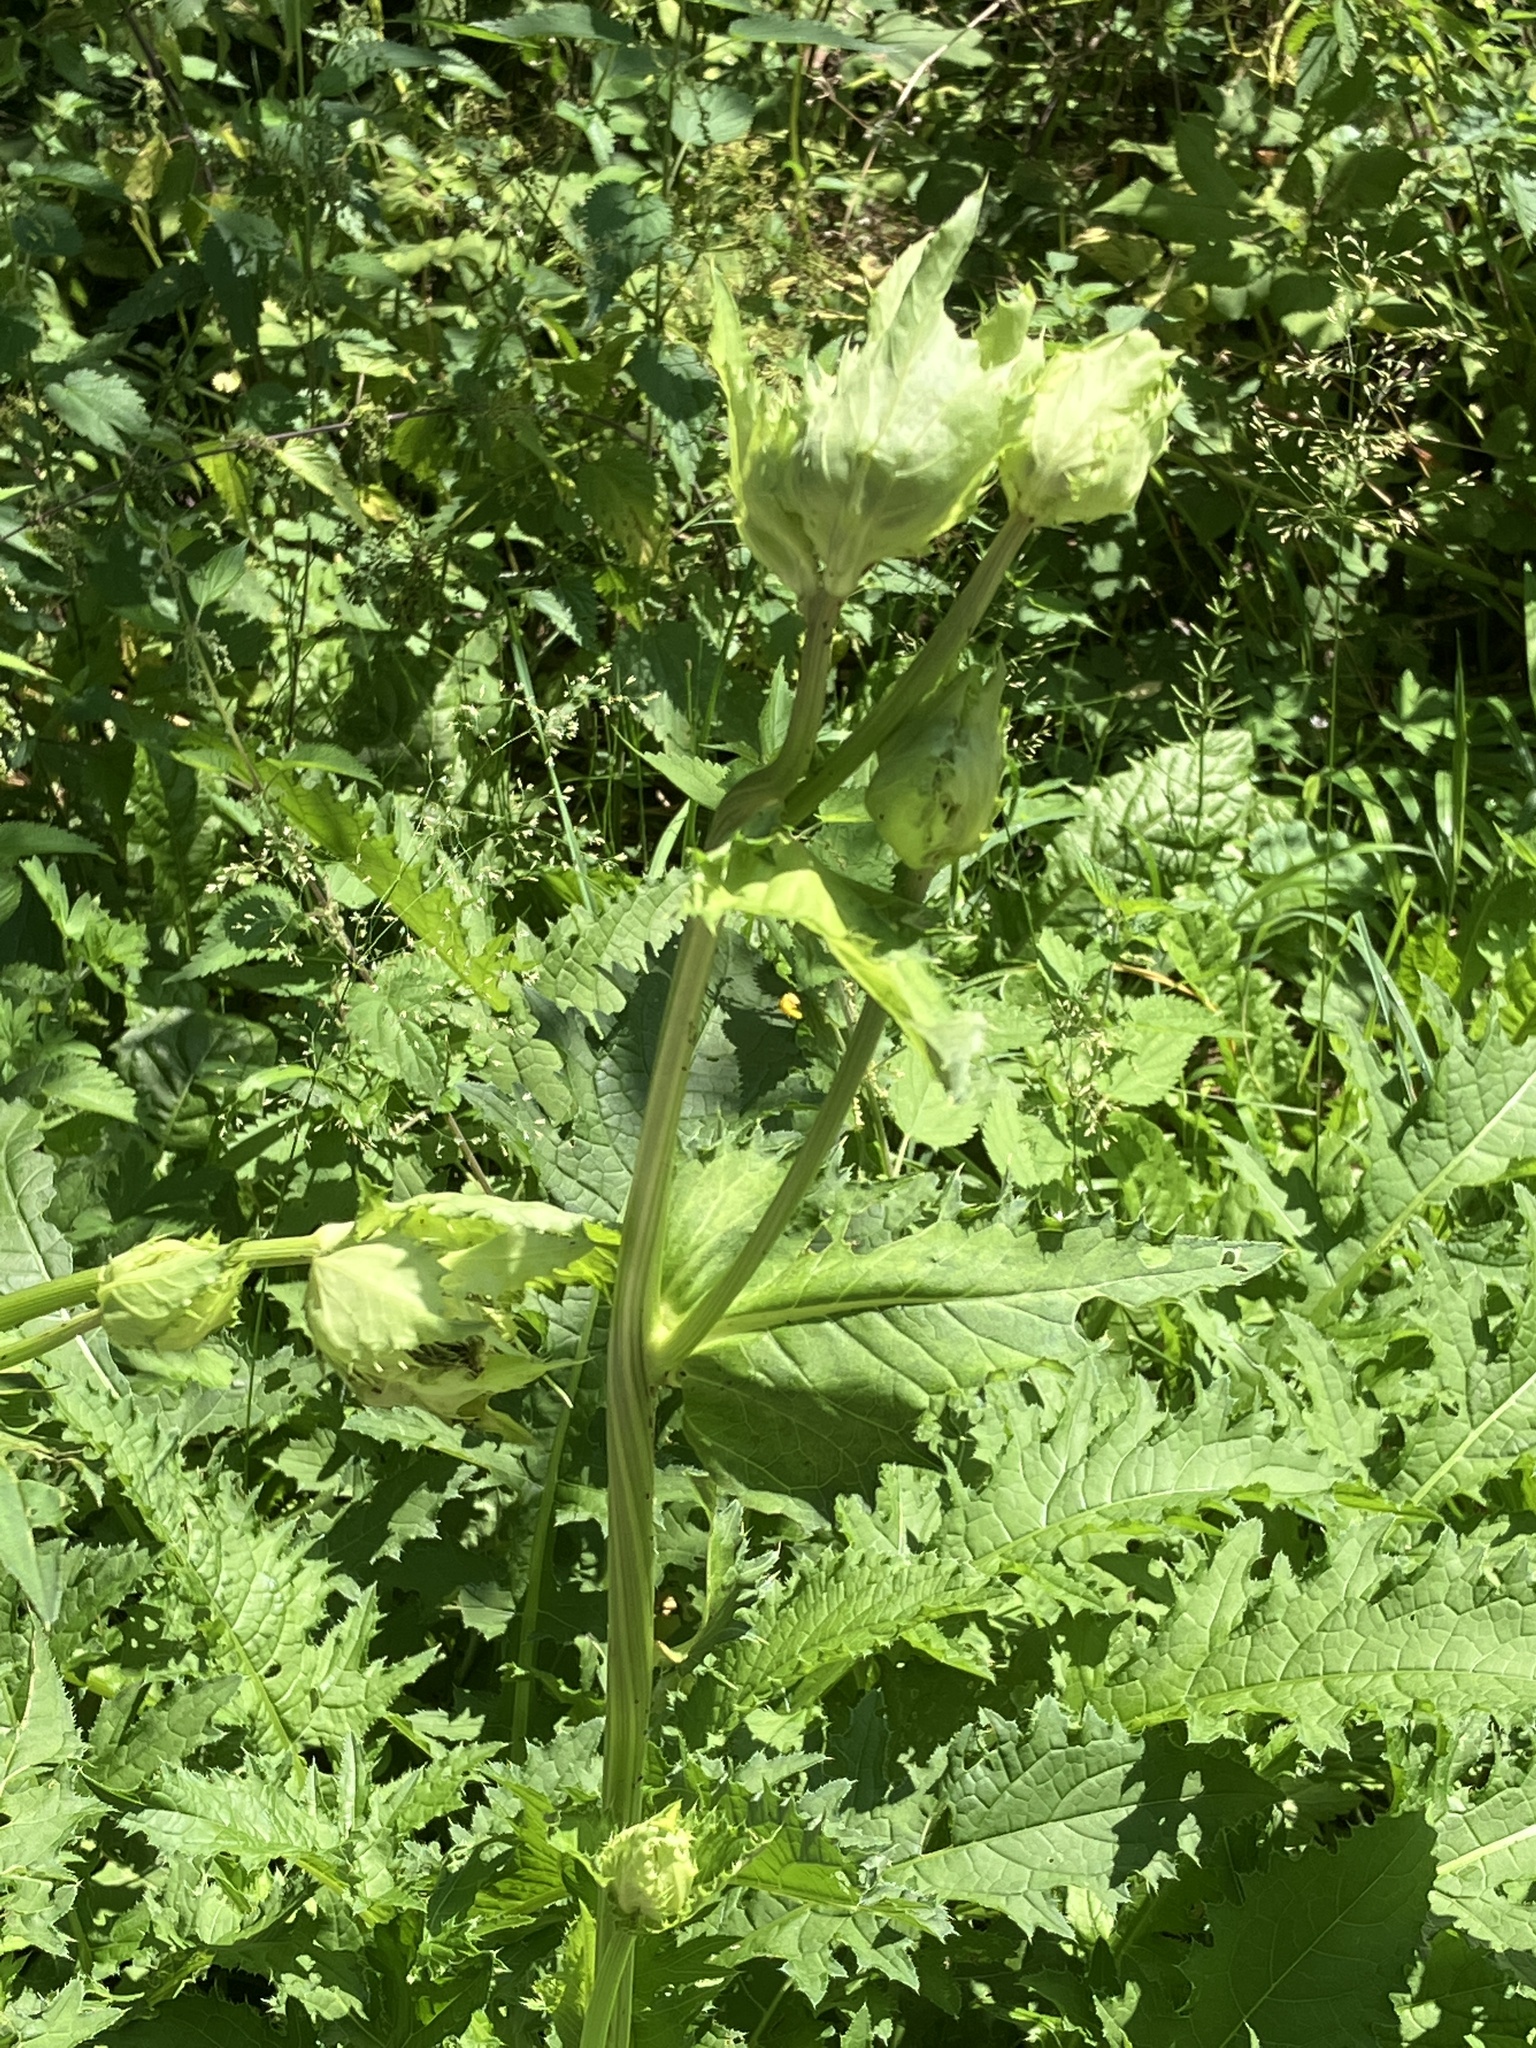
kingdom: Plantae
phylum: Tracheophyta
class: Magnoliopsida
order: Asterales
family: Asteraceae
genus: Cirsium
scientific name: Cirsium oleraceum
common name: Cabbage thistle
